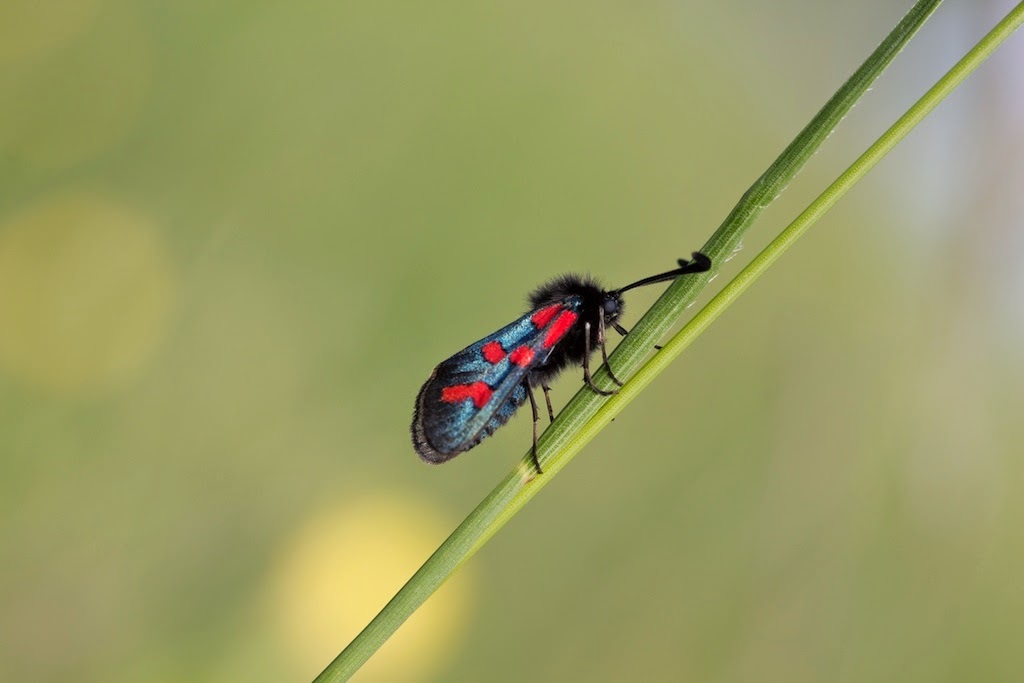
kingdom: Animalia
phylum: Arthropoda
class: Insecta
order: Lepidoptera
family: Zygaenidae
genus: Zygaena
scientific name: Zygaena oxytropis
